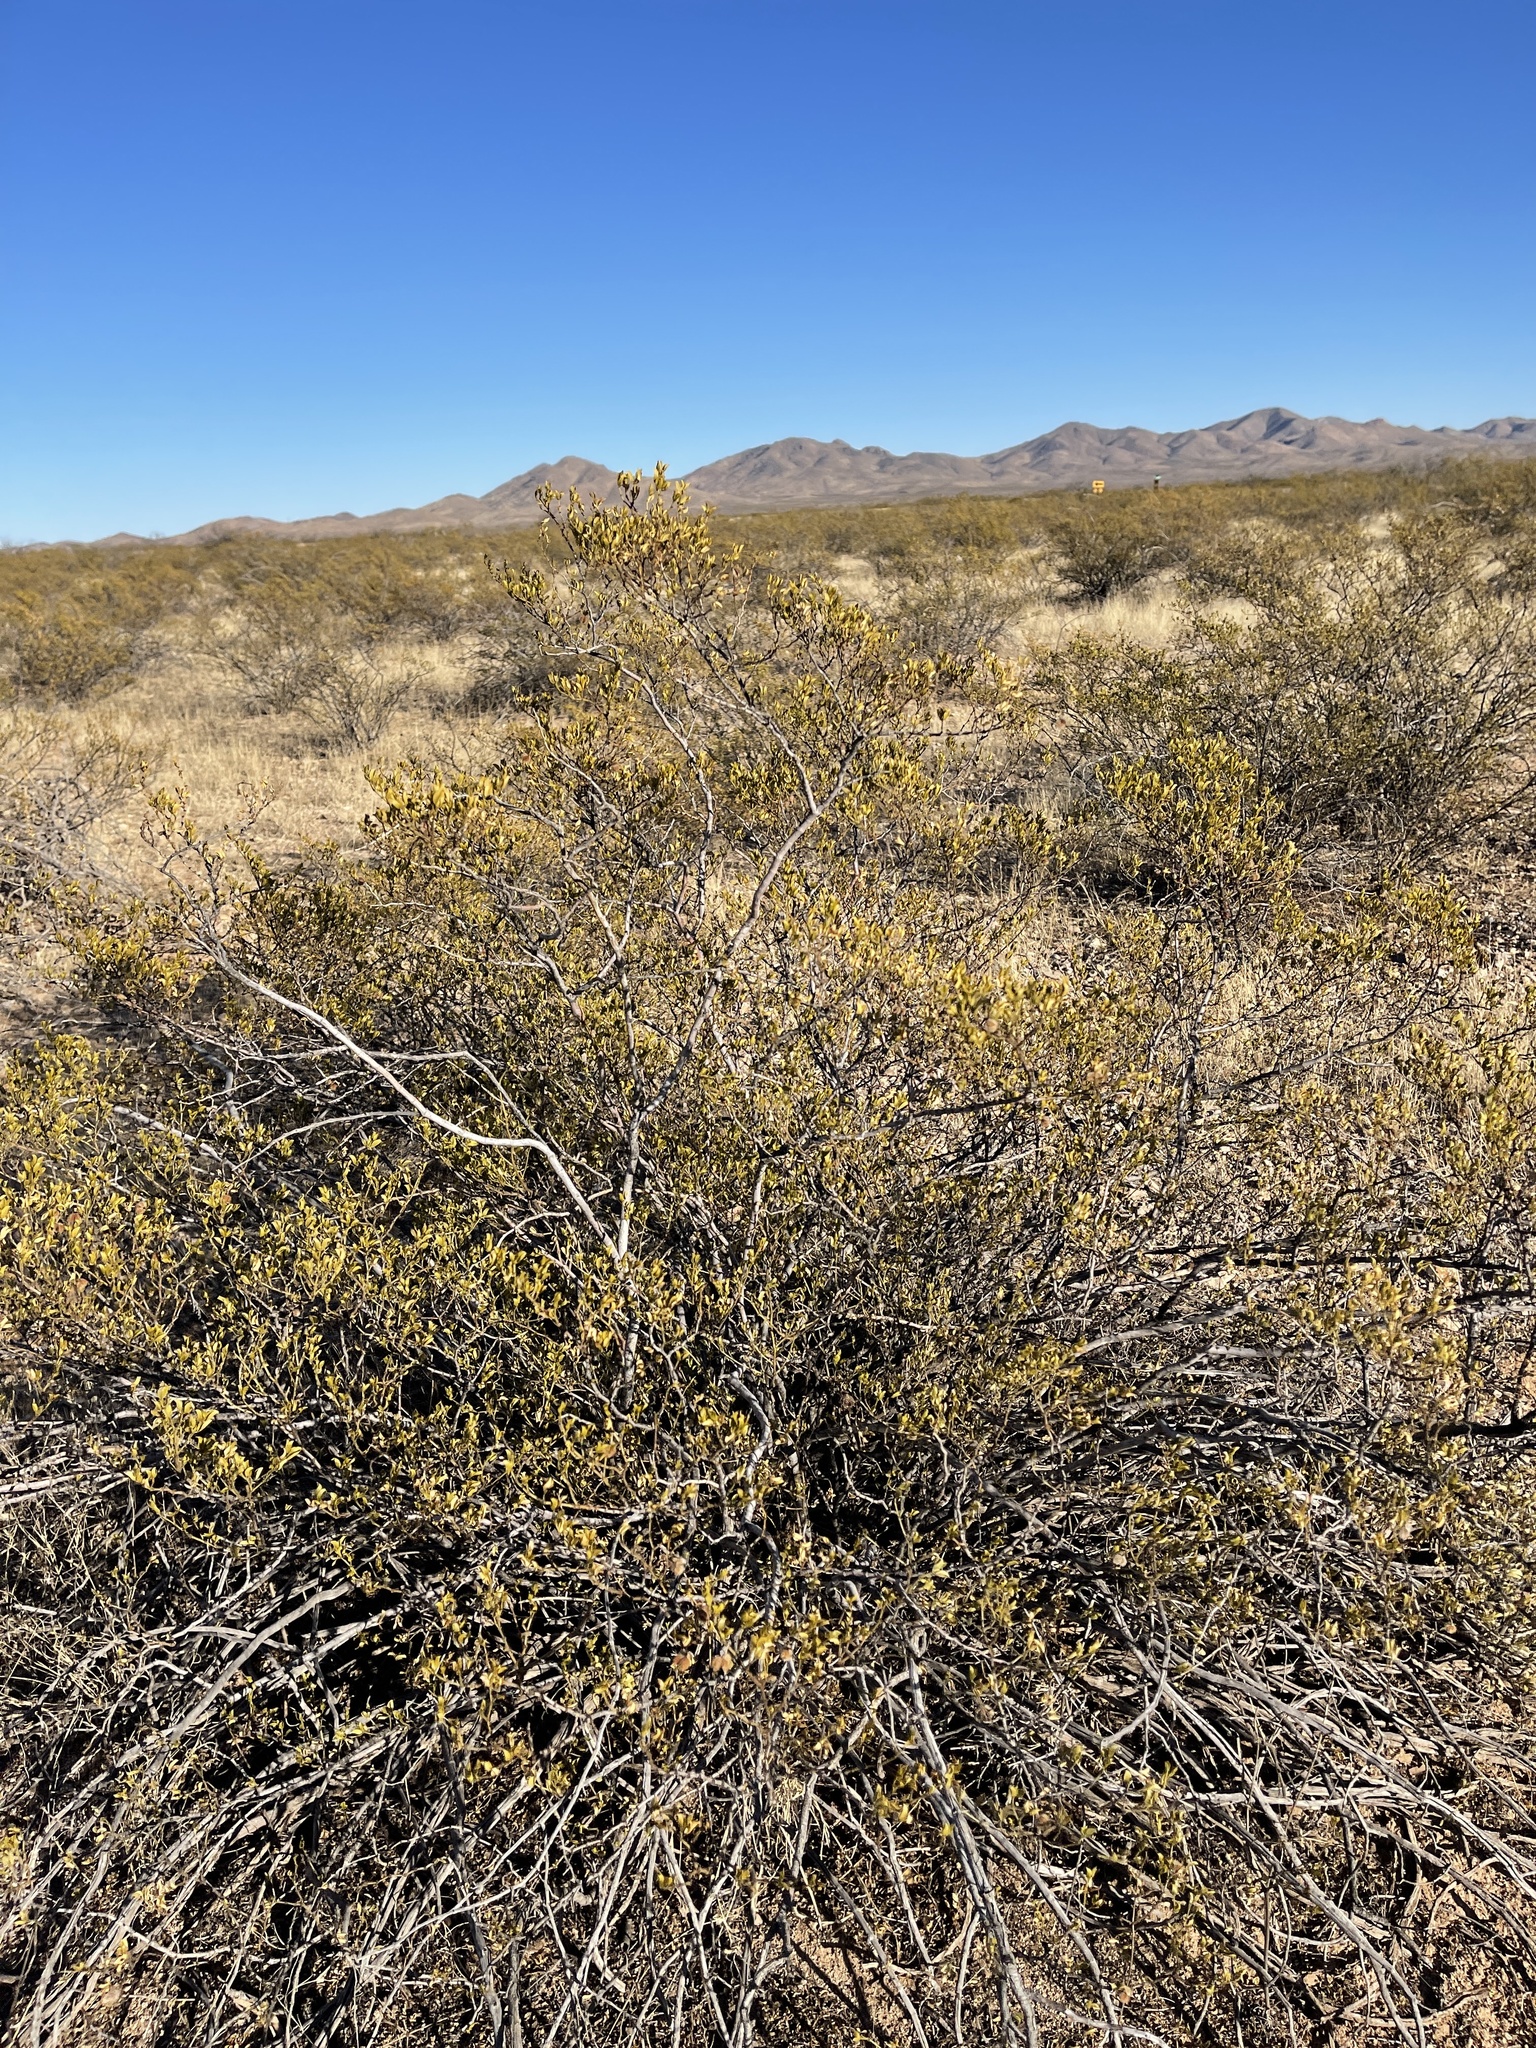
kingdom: Plantae
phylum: Tracheophyta
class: Magnoliopsida
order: Zygophyllales
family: Zygophyllaceae
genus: Larrea
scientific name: Larrea tridentata
